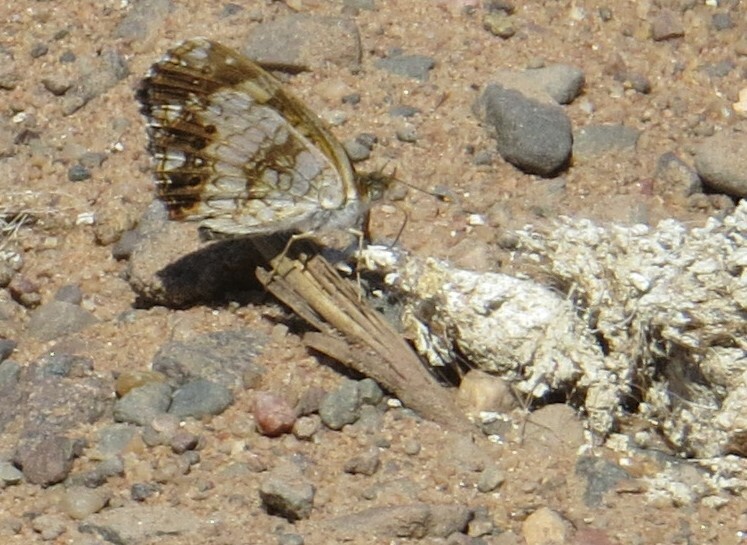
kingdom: Animalia
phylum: Arthropoda
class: Insecta
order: Lepidoptera
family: Nymphalidae
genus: Chlosyne
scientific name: Chlosyne nycteis
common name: Silvery checkerspot
